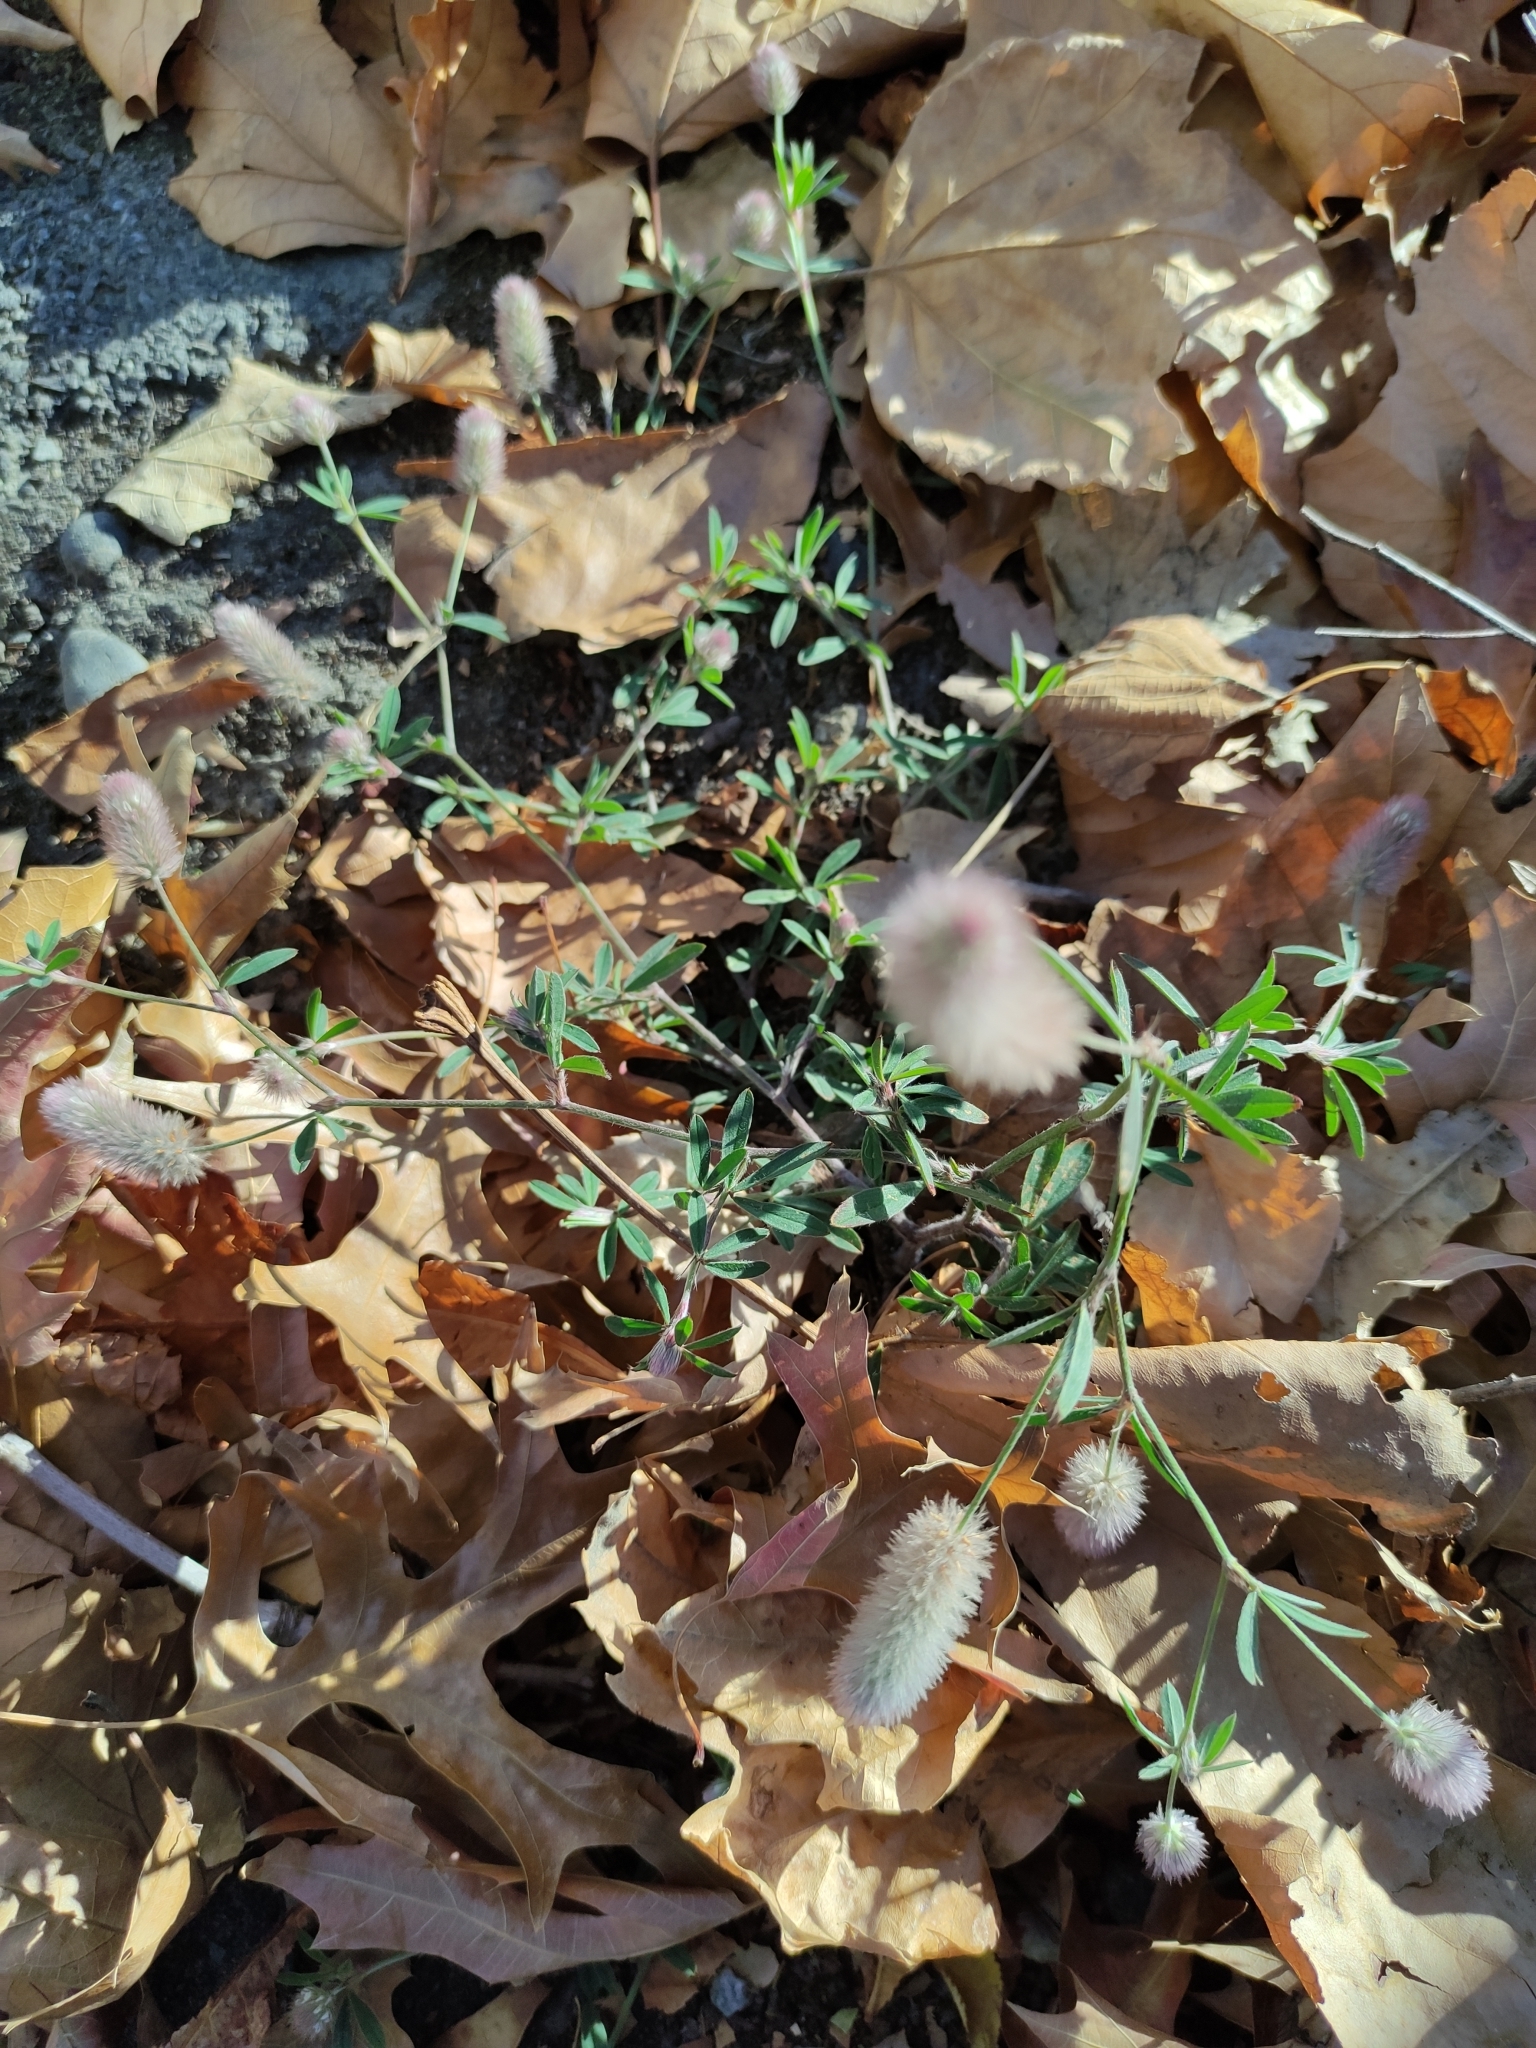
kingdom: Plantae
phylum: Tracheophyta
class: Magnoliopsida
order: Fabales
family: Fabaceae
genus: Trifolium
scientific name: Trifolium arvense
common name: Hare's-foot clover
